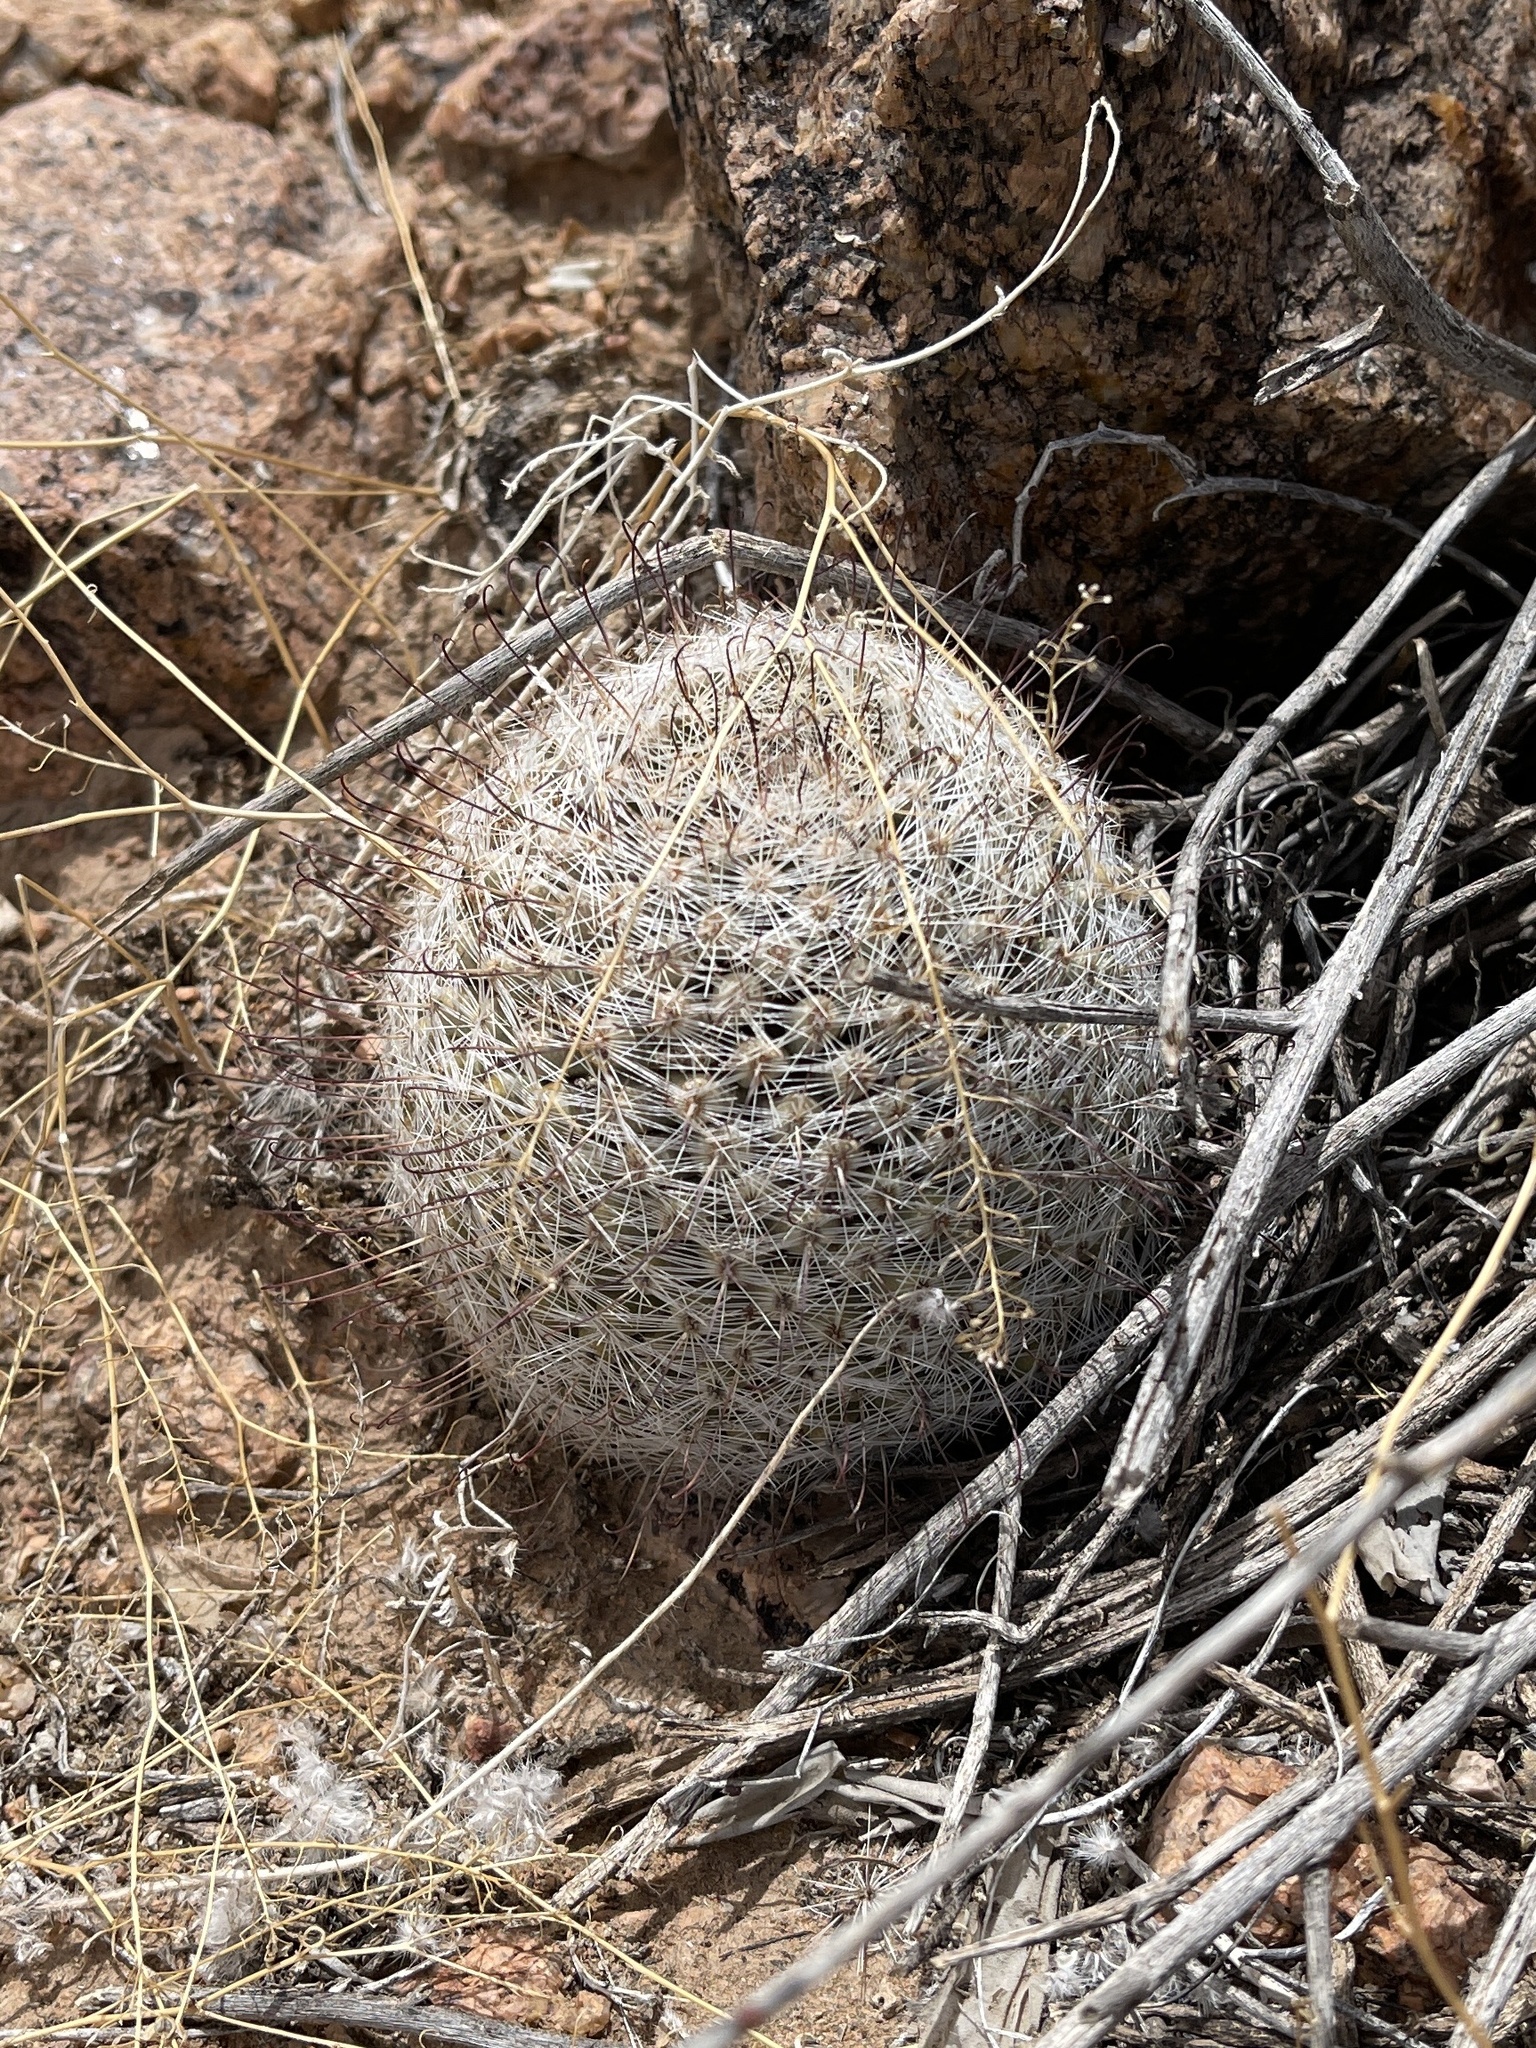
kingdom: Plantae
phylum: Tracheophyta
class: Magnoliopsida
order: Caryophyllales
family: Cactaceae
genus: Cochemiea
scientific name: Cochemiea grahamii
